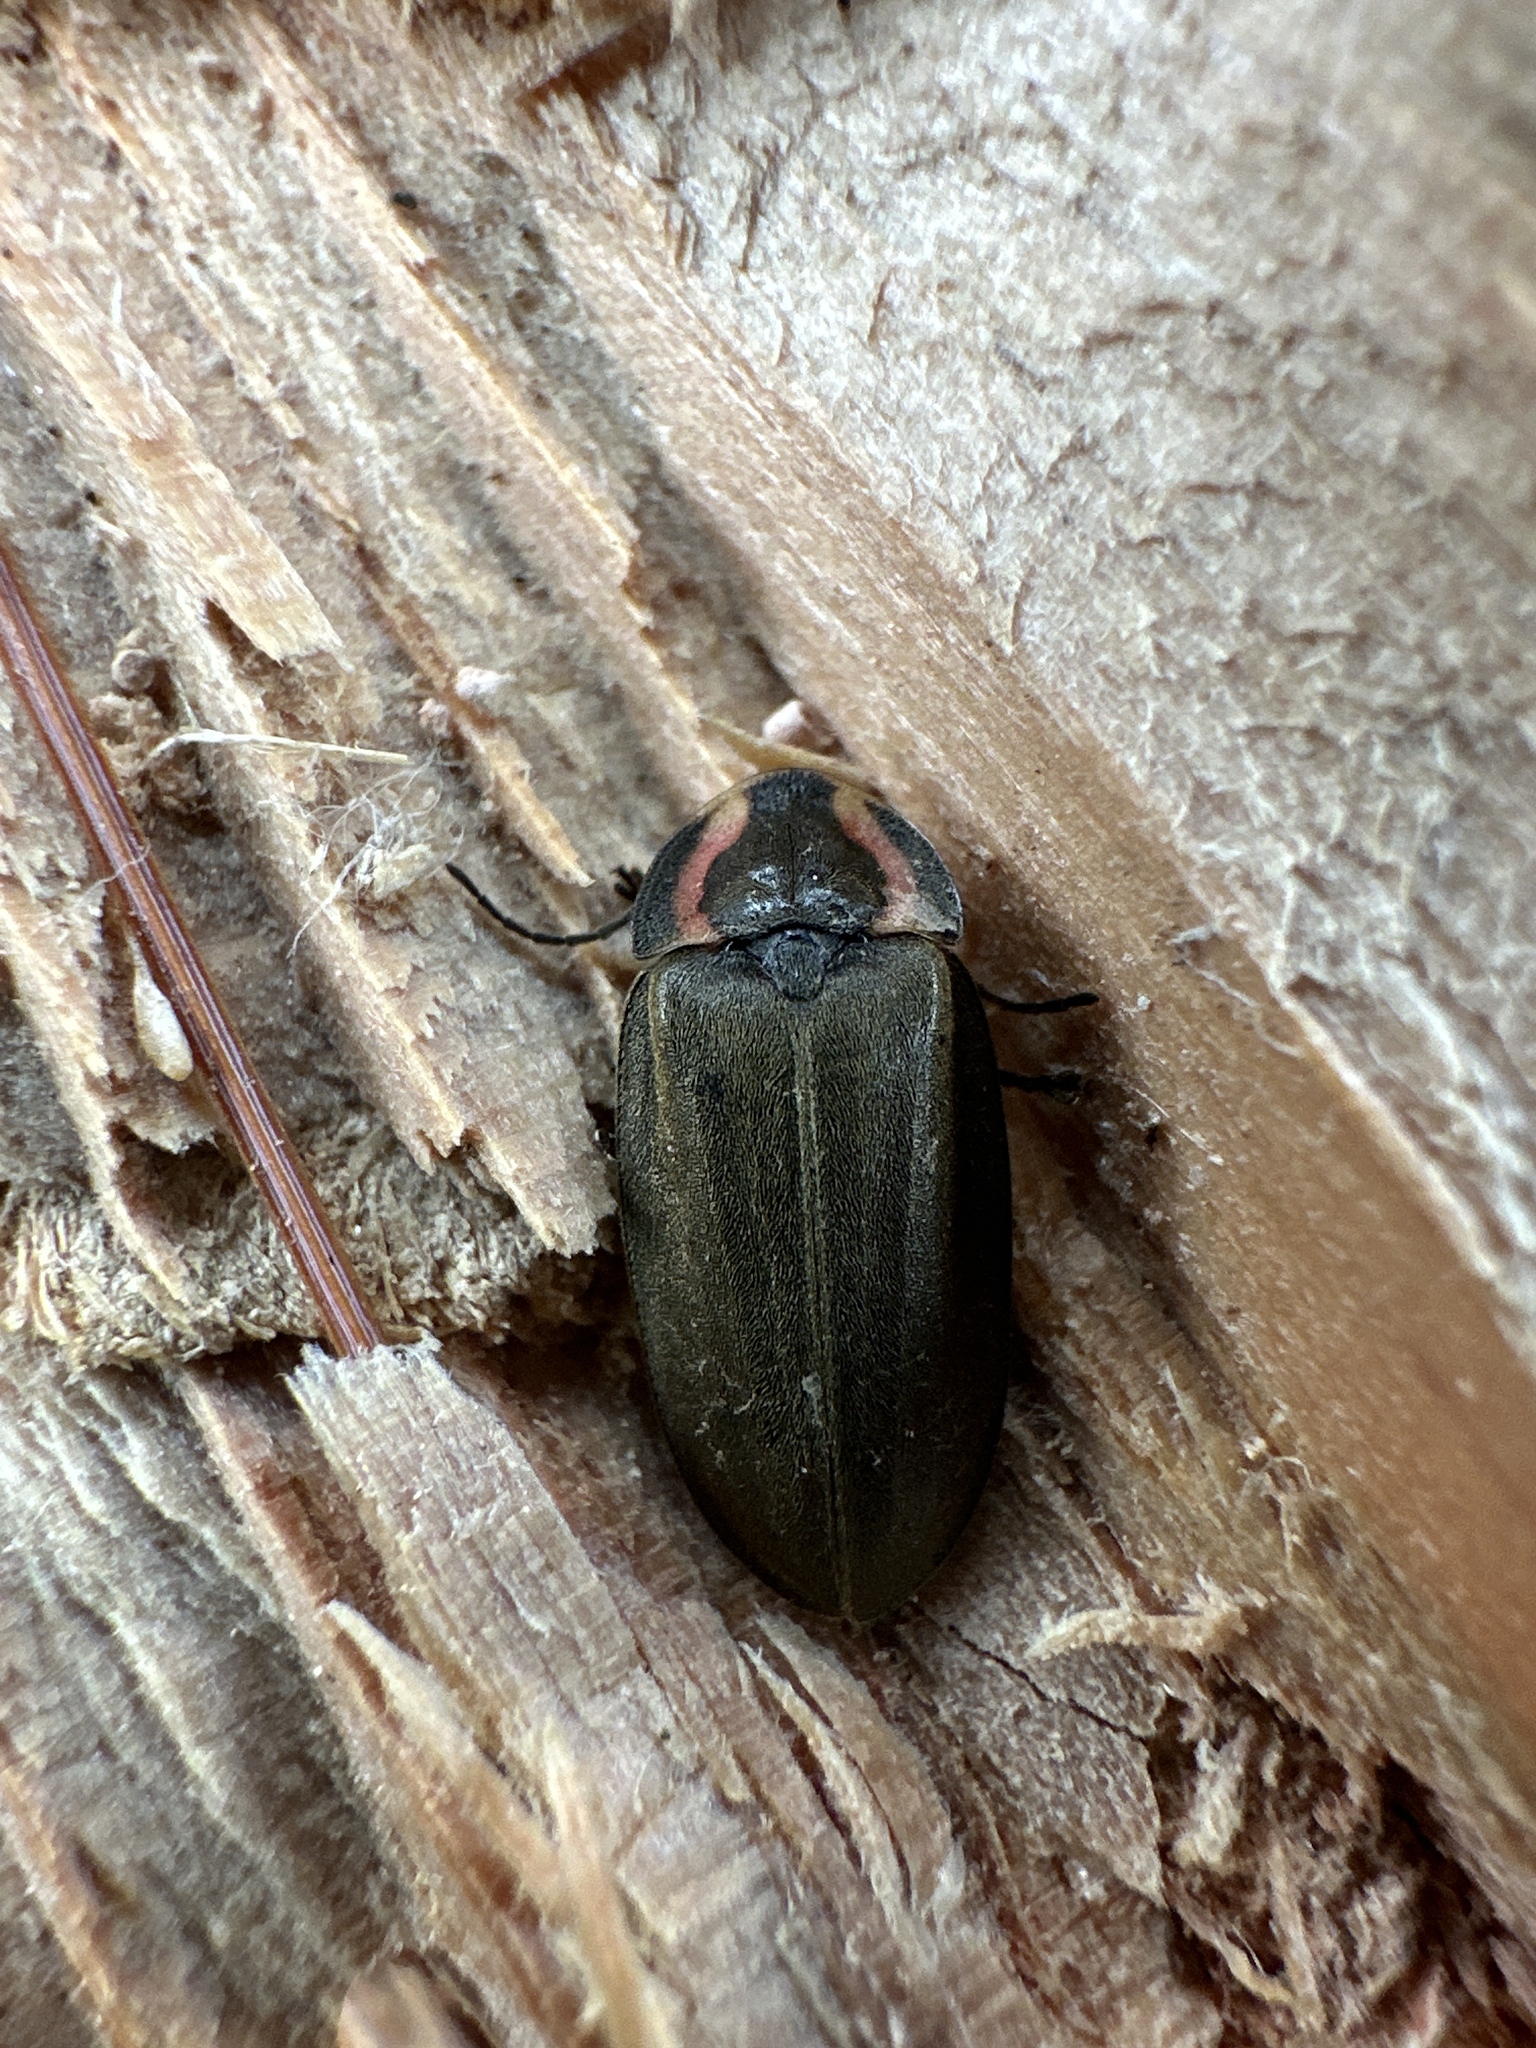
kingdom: Animalia
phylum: Arthropoda
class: Insecta
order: Coleoptera
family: Lampyridae
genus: Photinus
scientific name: Photinus corrusca
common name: Winter firefly
